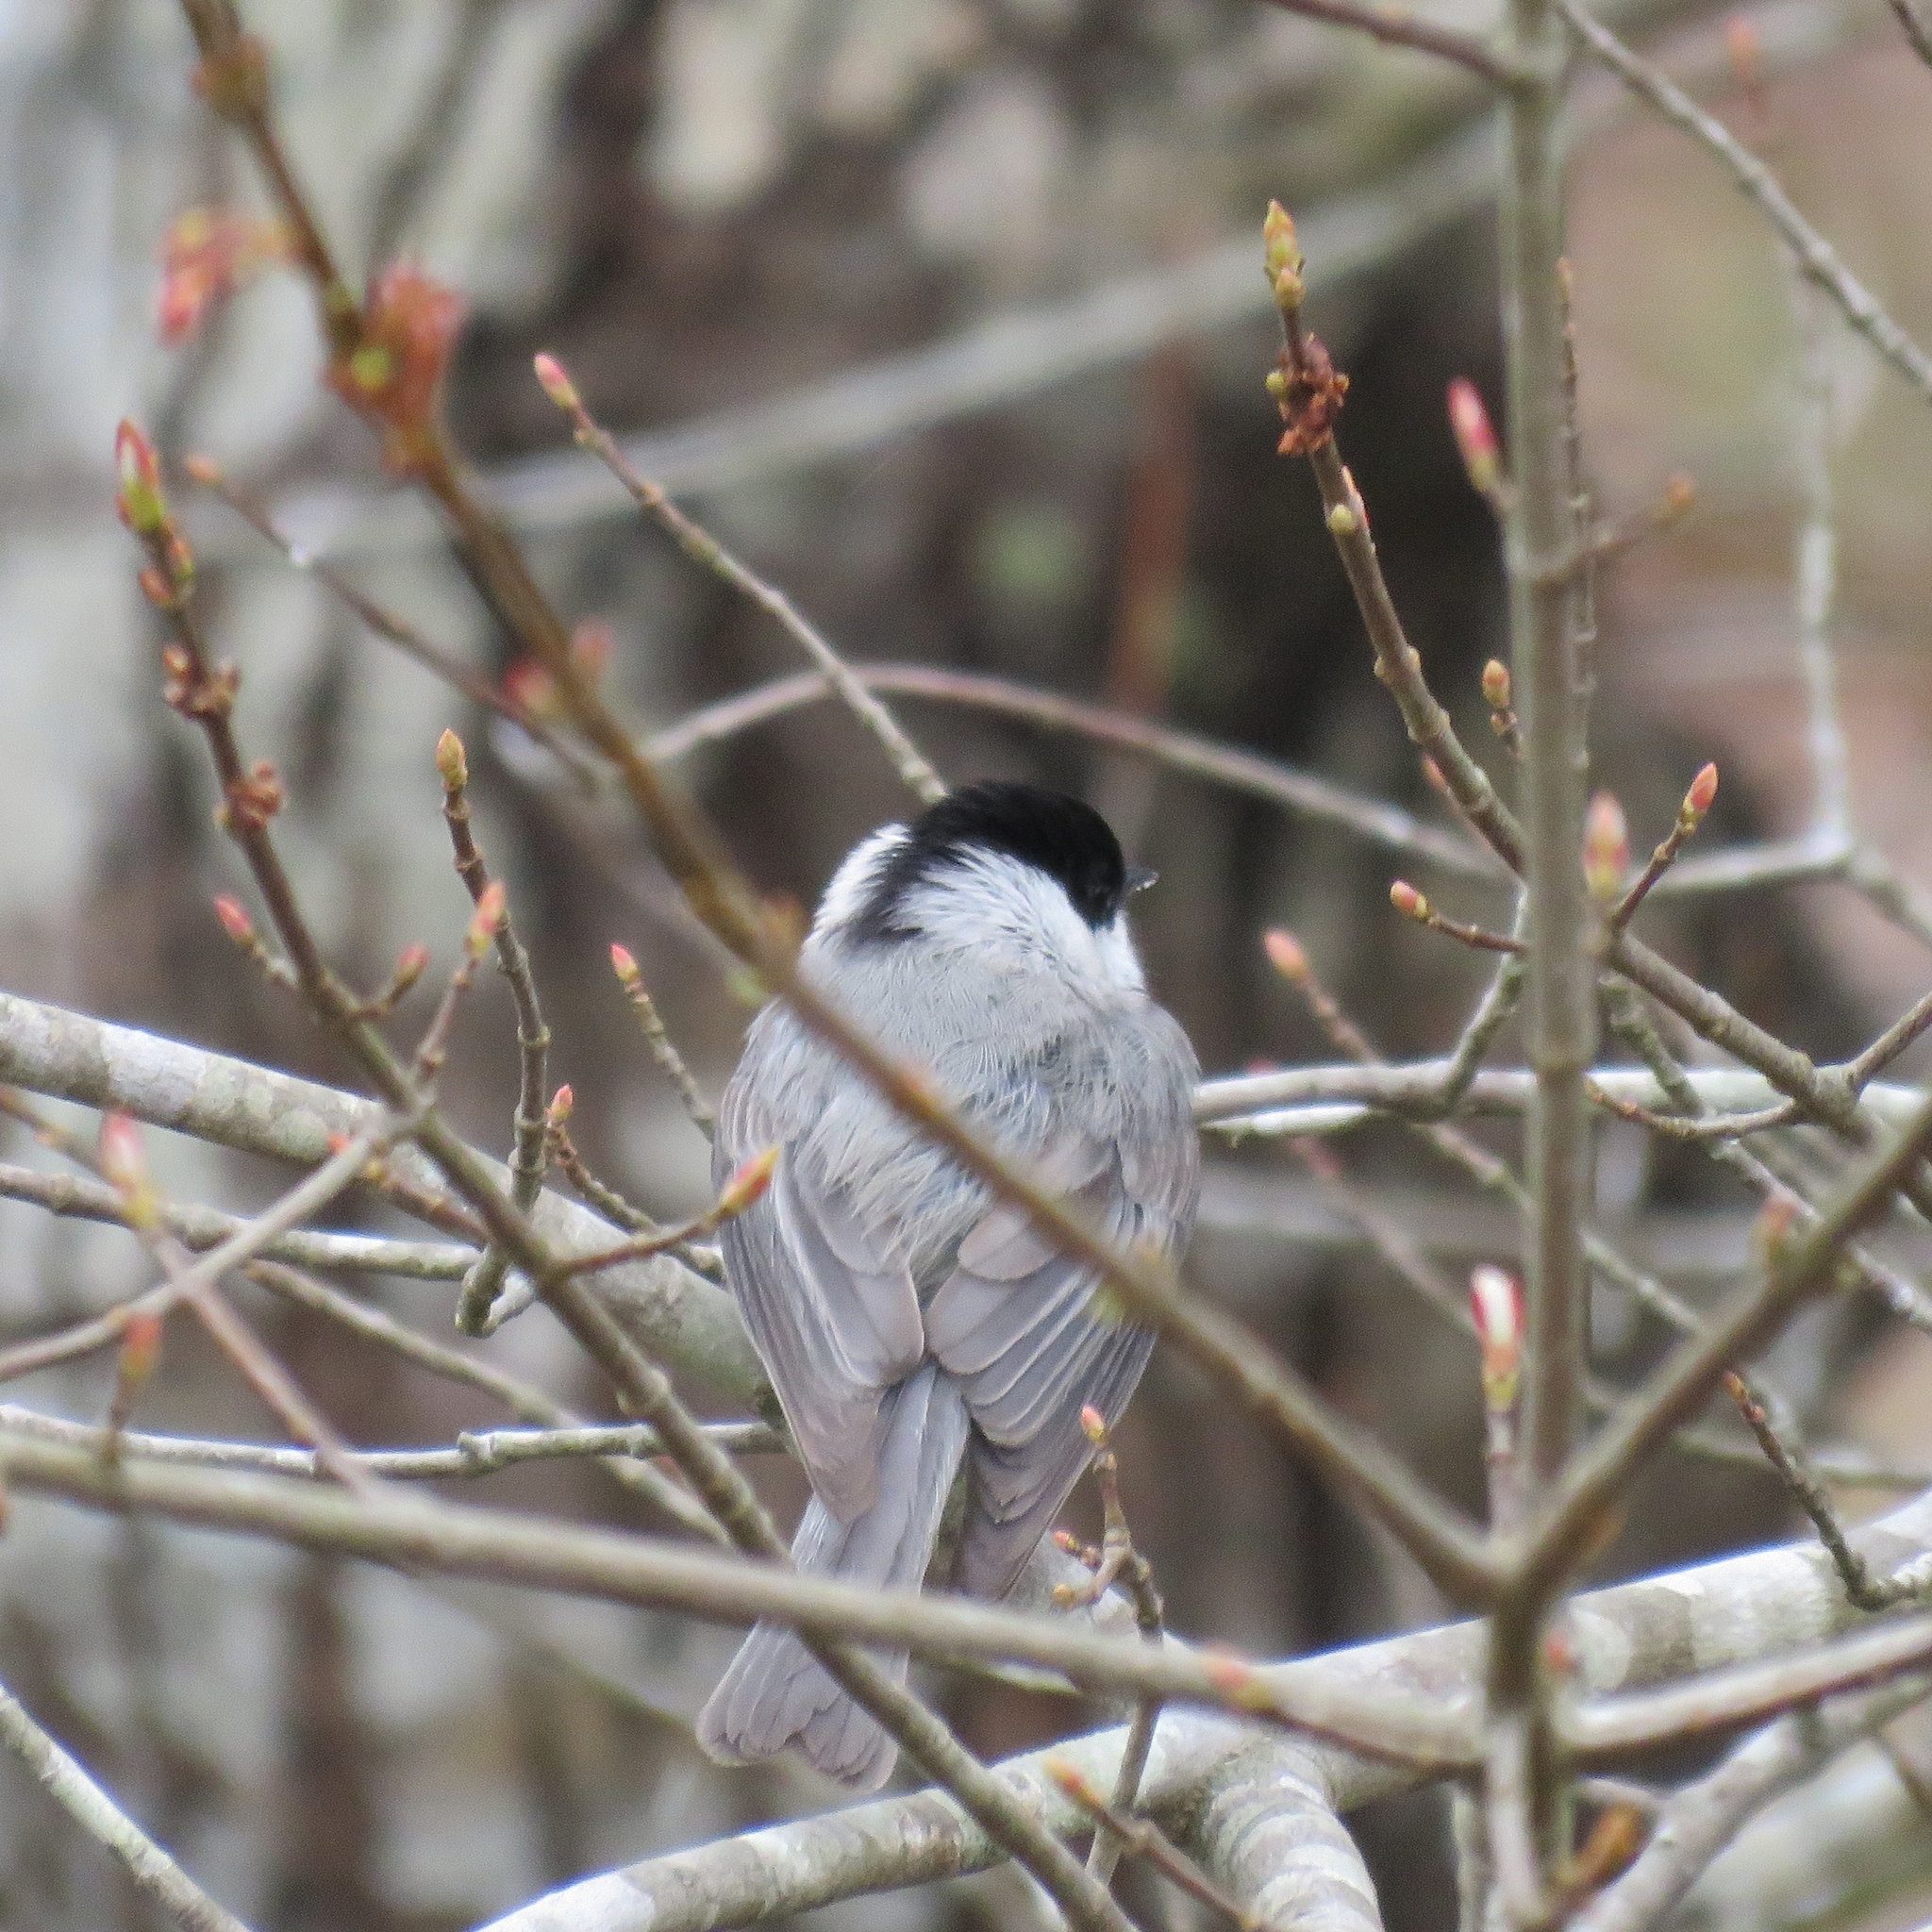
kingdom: Animalia
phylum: Chordata
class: Aves
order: Passeriformes
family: Paridae
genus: Poecile
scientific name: Poecile carolinensis
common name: Carolina chickadee
